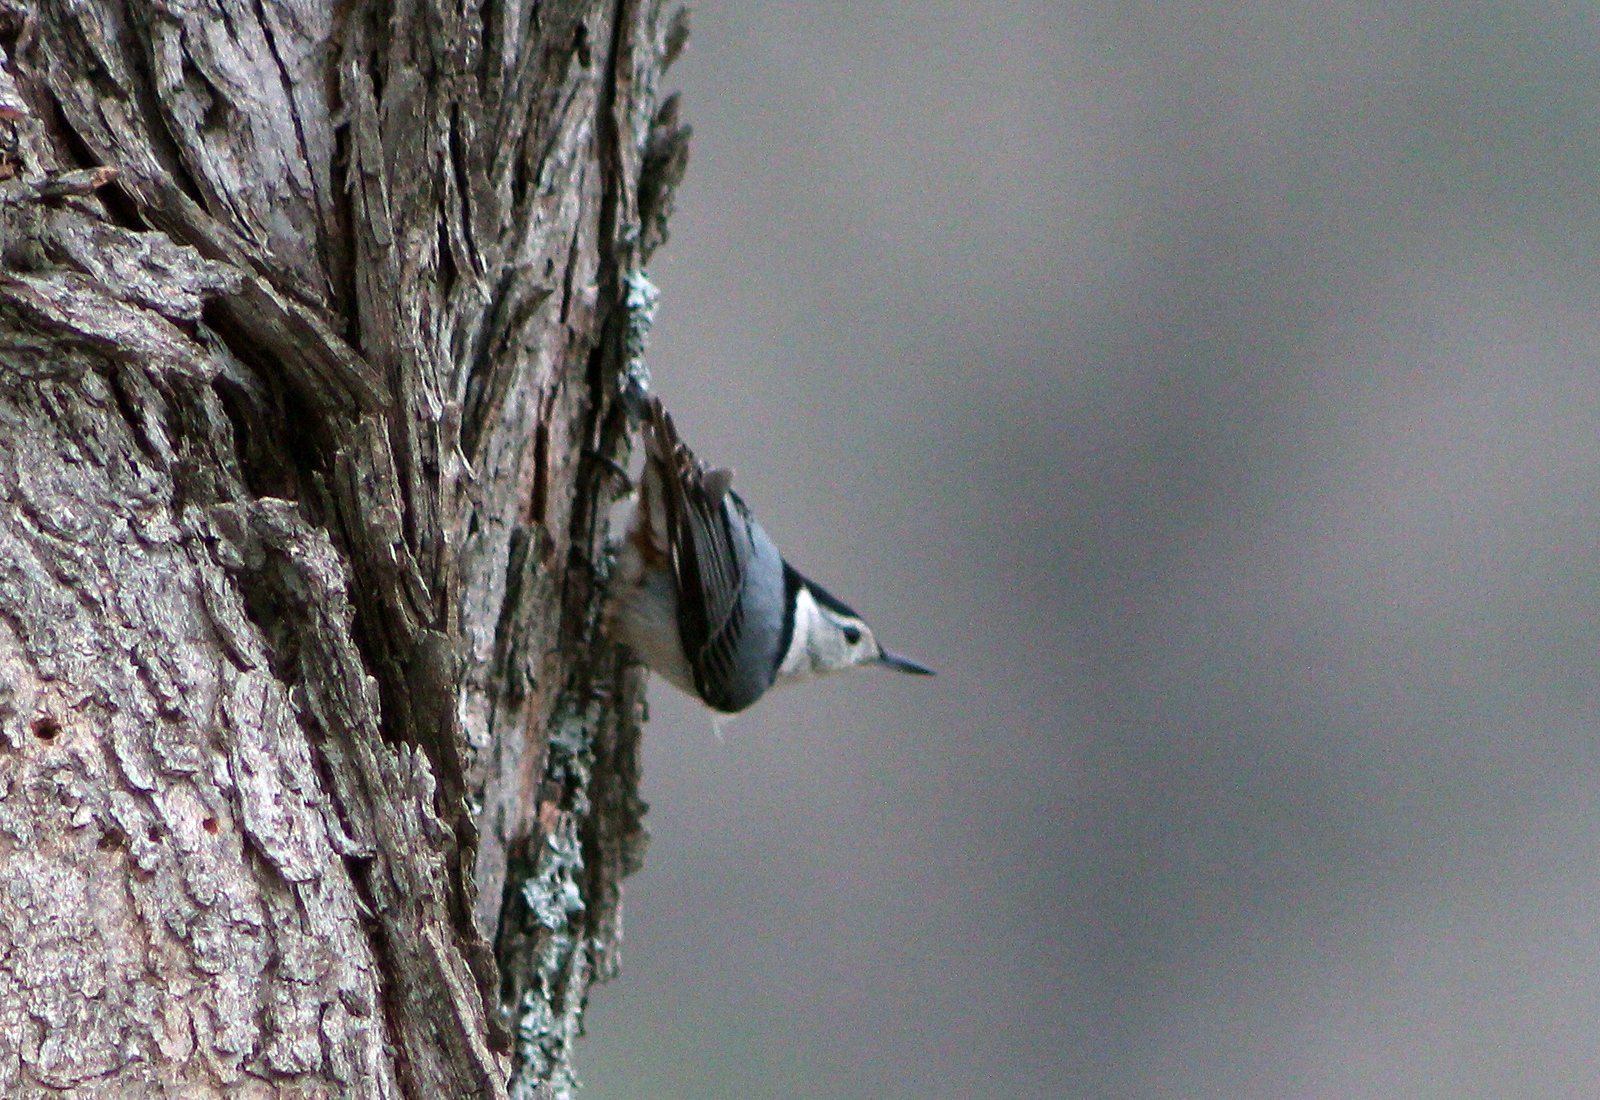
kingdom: Animalia
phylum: Chordata
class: Aves
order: Passeriformes
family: Sittidae
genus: Sitta
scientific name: Sitta carolinensis
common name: White-breasted nuthatch
